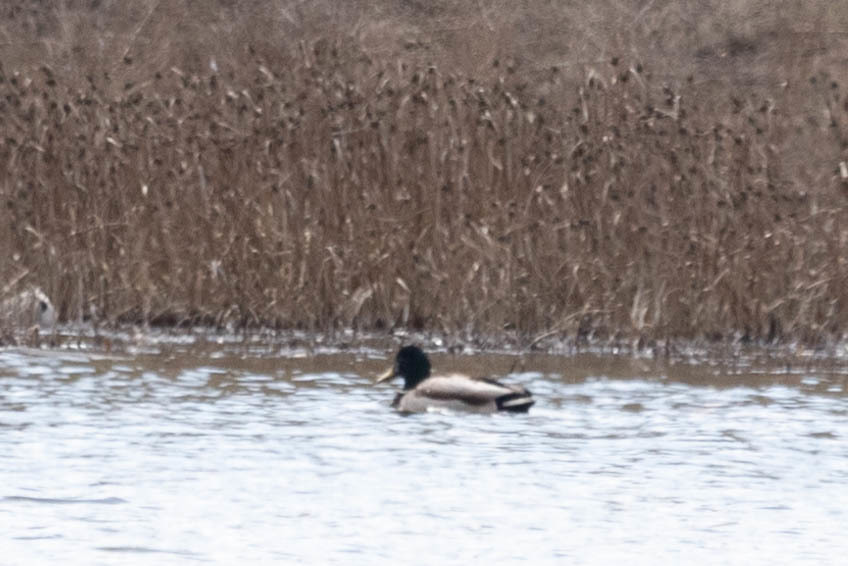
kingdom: Animalia
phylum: Chordata
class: Aves
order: Anseriformes
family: Anatidae
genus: Anas
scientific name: Anas platyrhynchos
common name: Mallard
